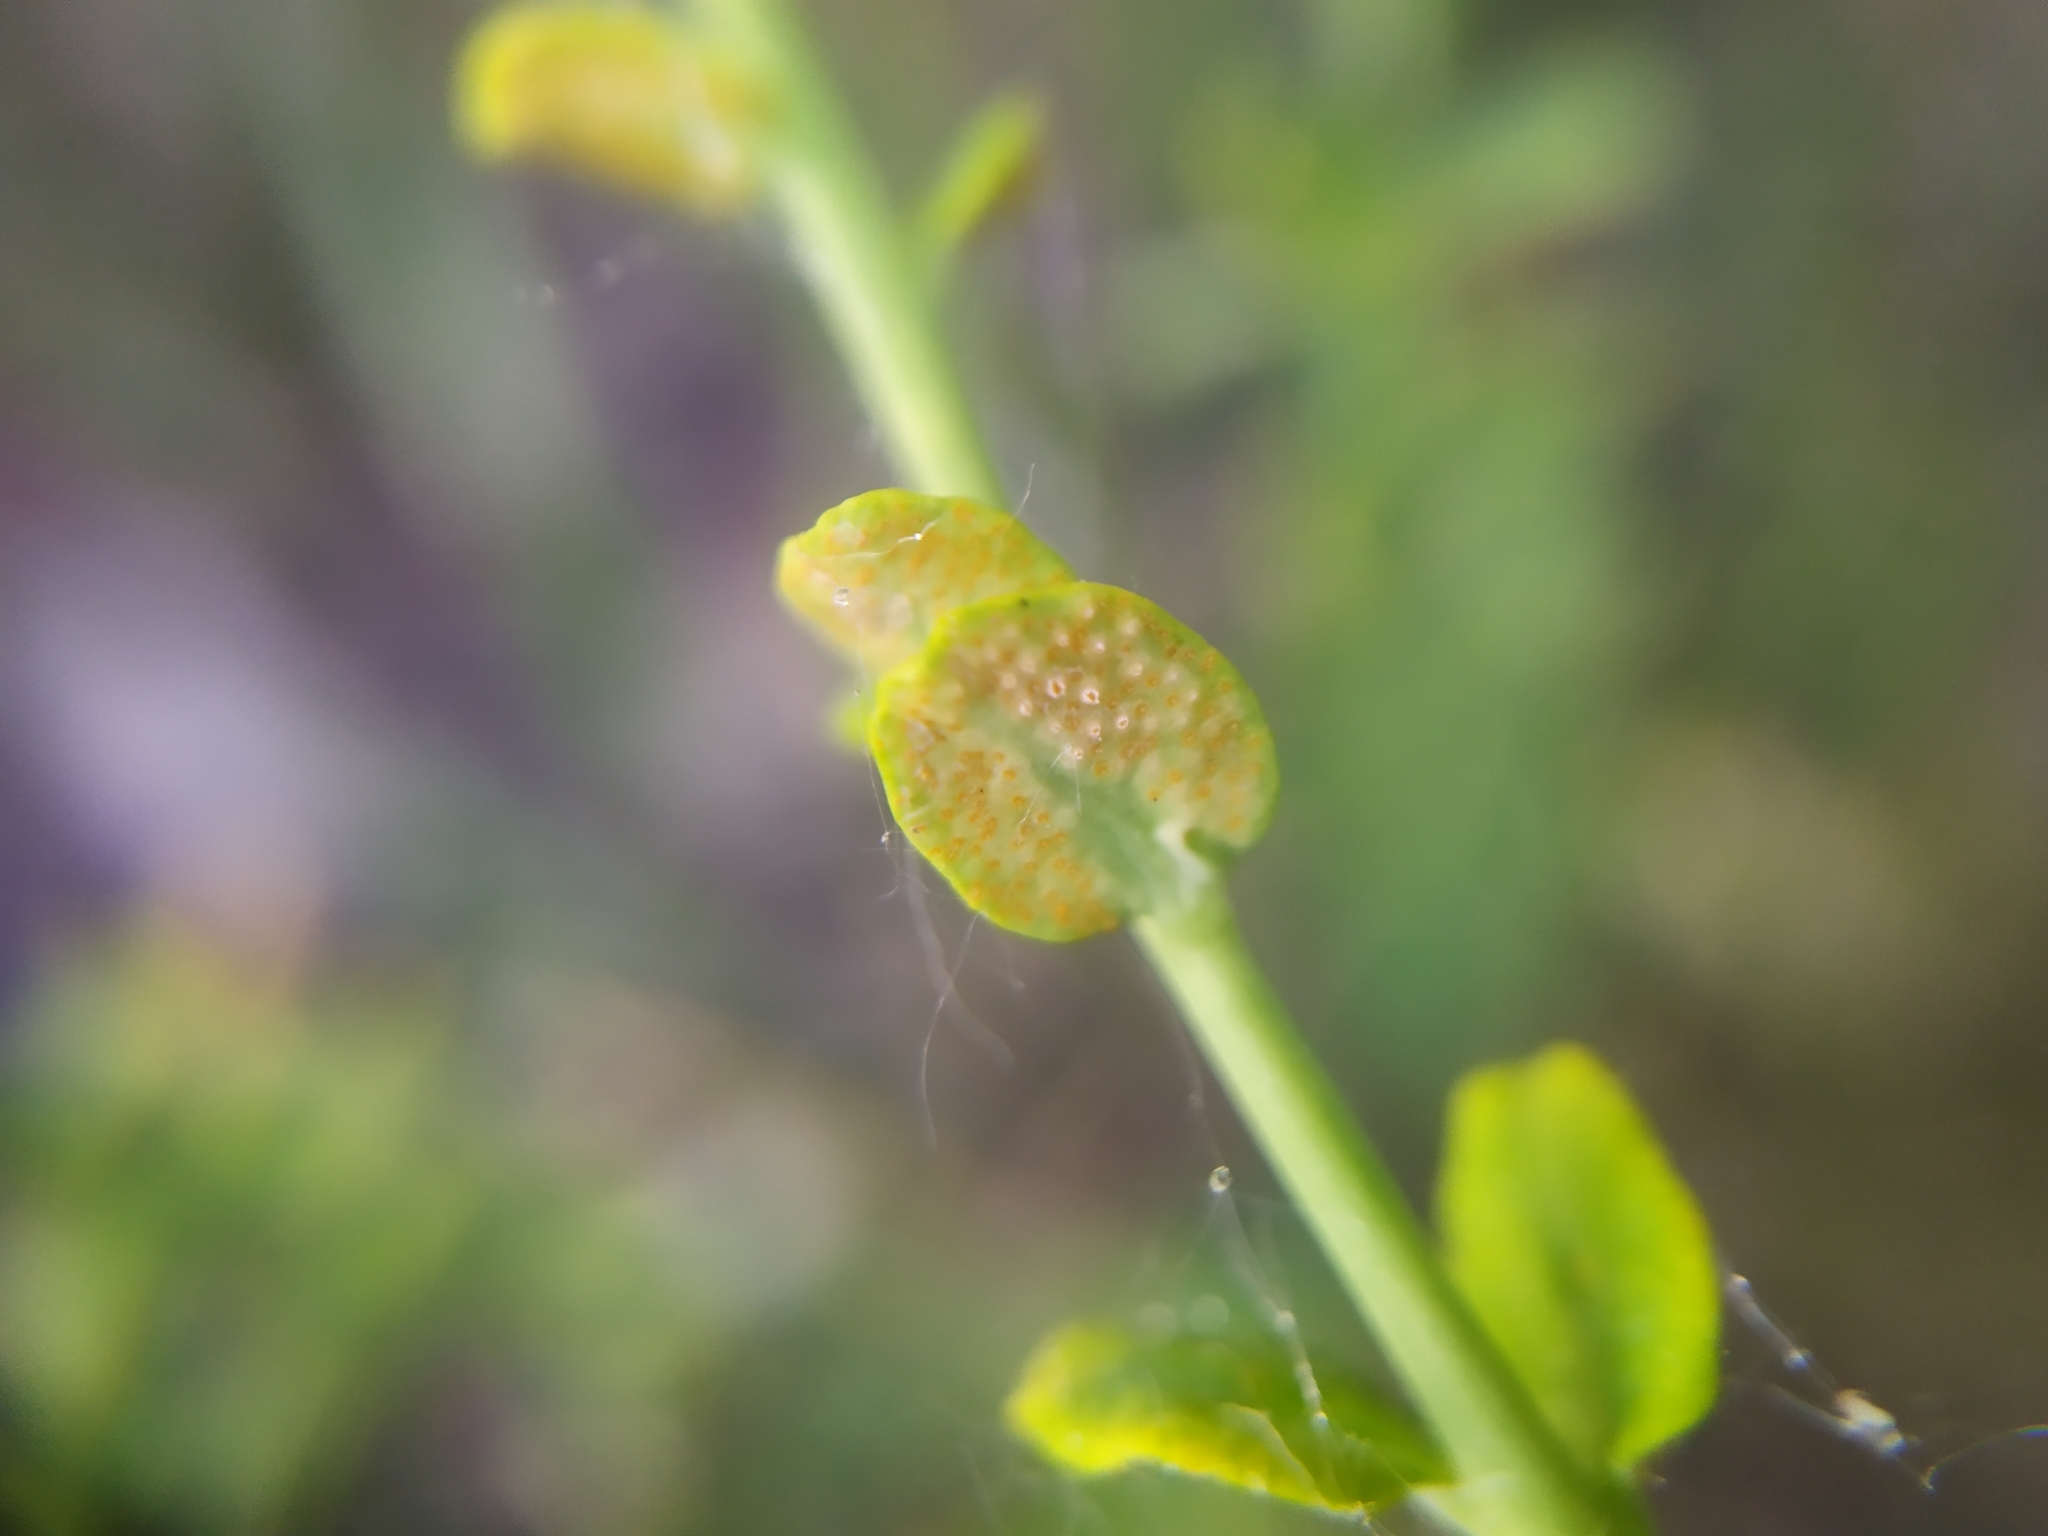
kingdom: Fungi
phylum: Basidiomycota
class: Pucciniomycetes
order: Pucciniales
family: Pucciniaceae
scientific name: Pucciniaceae
